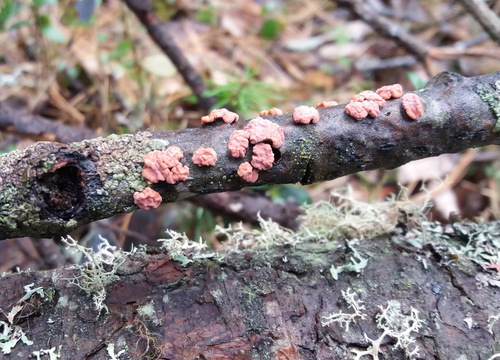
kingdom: Fungi
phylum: Basidiomycota
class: Agaricomycetes
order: Russulales
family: Peniophoraceae
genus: Peniophora
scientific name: Peniophora rufa
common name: Red tree brain fungus
